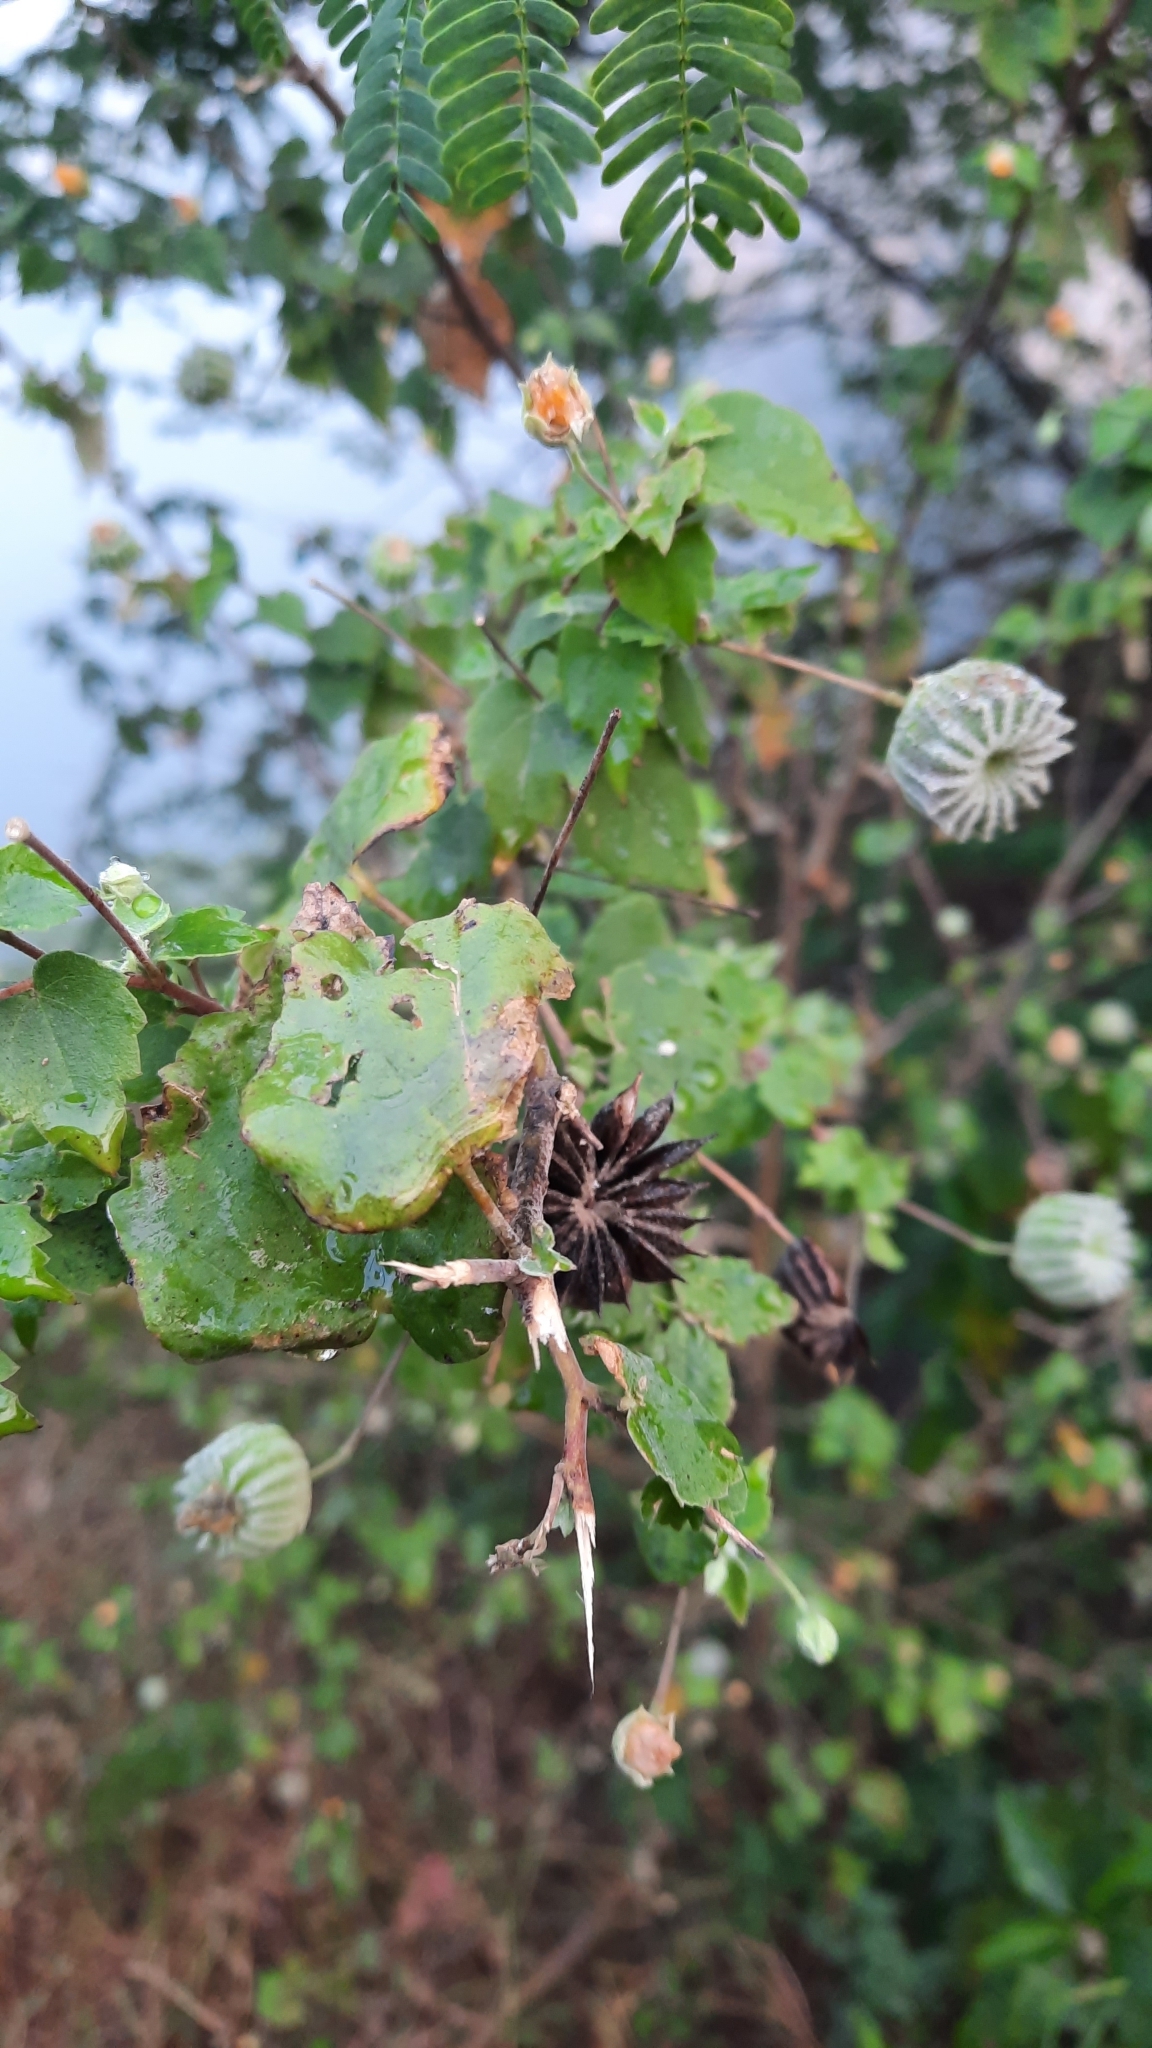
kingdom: Plantae
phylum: Tracheophyta
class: Magnoliopsida
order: Malvales
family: Malvaceae
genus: Abutilon
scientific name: Abutilon indicum
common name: Indian abutilon
